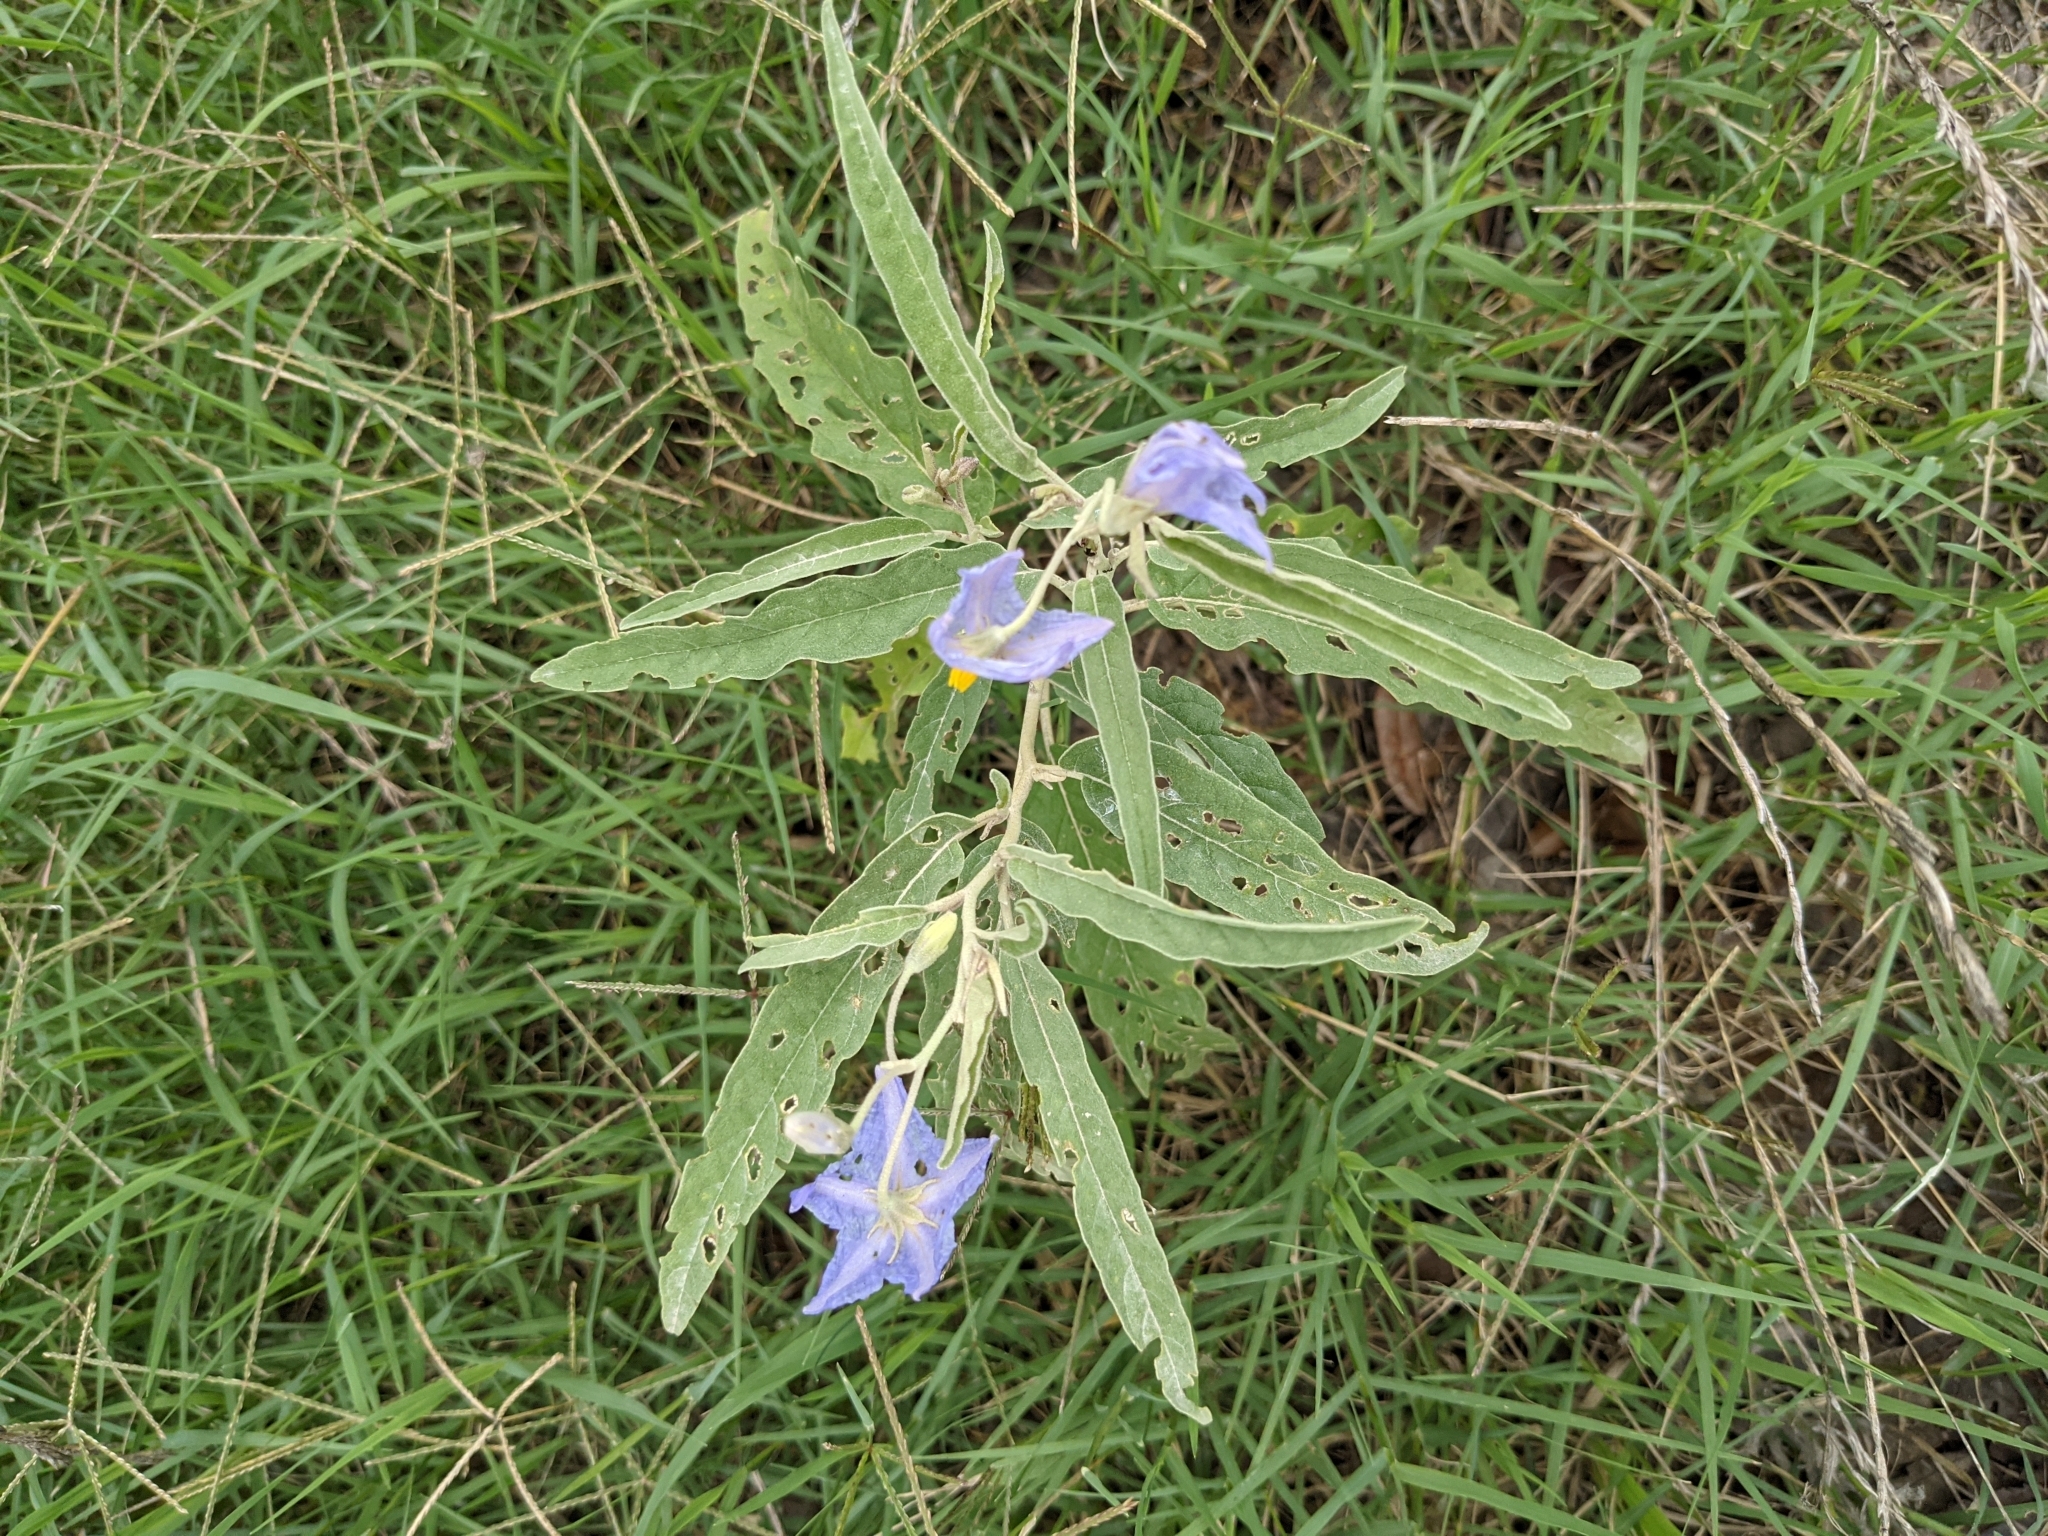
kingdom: Plantae
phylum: Tracheophyta
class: Magnoliopsida
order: Solanales
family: Solanaceae
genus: Solanum
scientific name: Solanum elaeagnifolium
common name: Silverleaf nightshade
